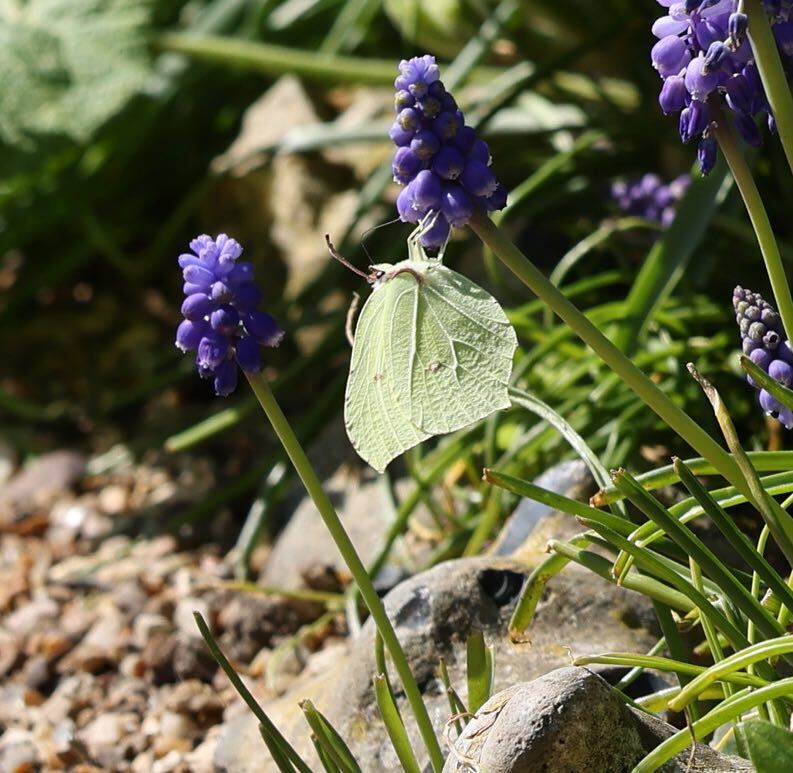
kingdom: Animalia
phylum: Arthropoda
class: Insecta
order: Lepidoptera
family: Pieridae
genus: Gonepteryx
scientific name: Gonepteryx rhamni
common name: Brimstone
